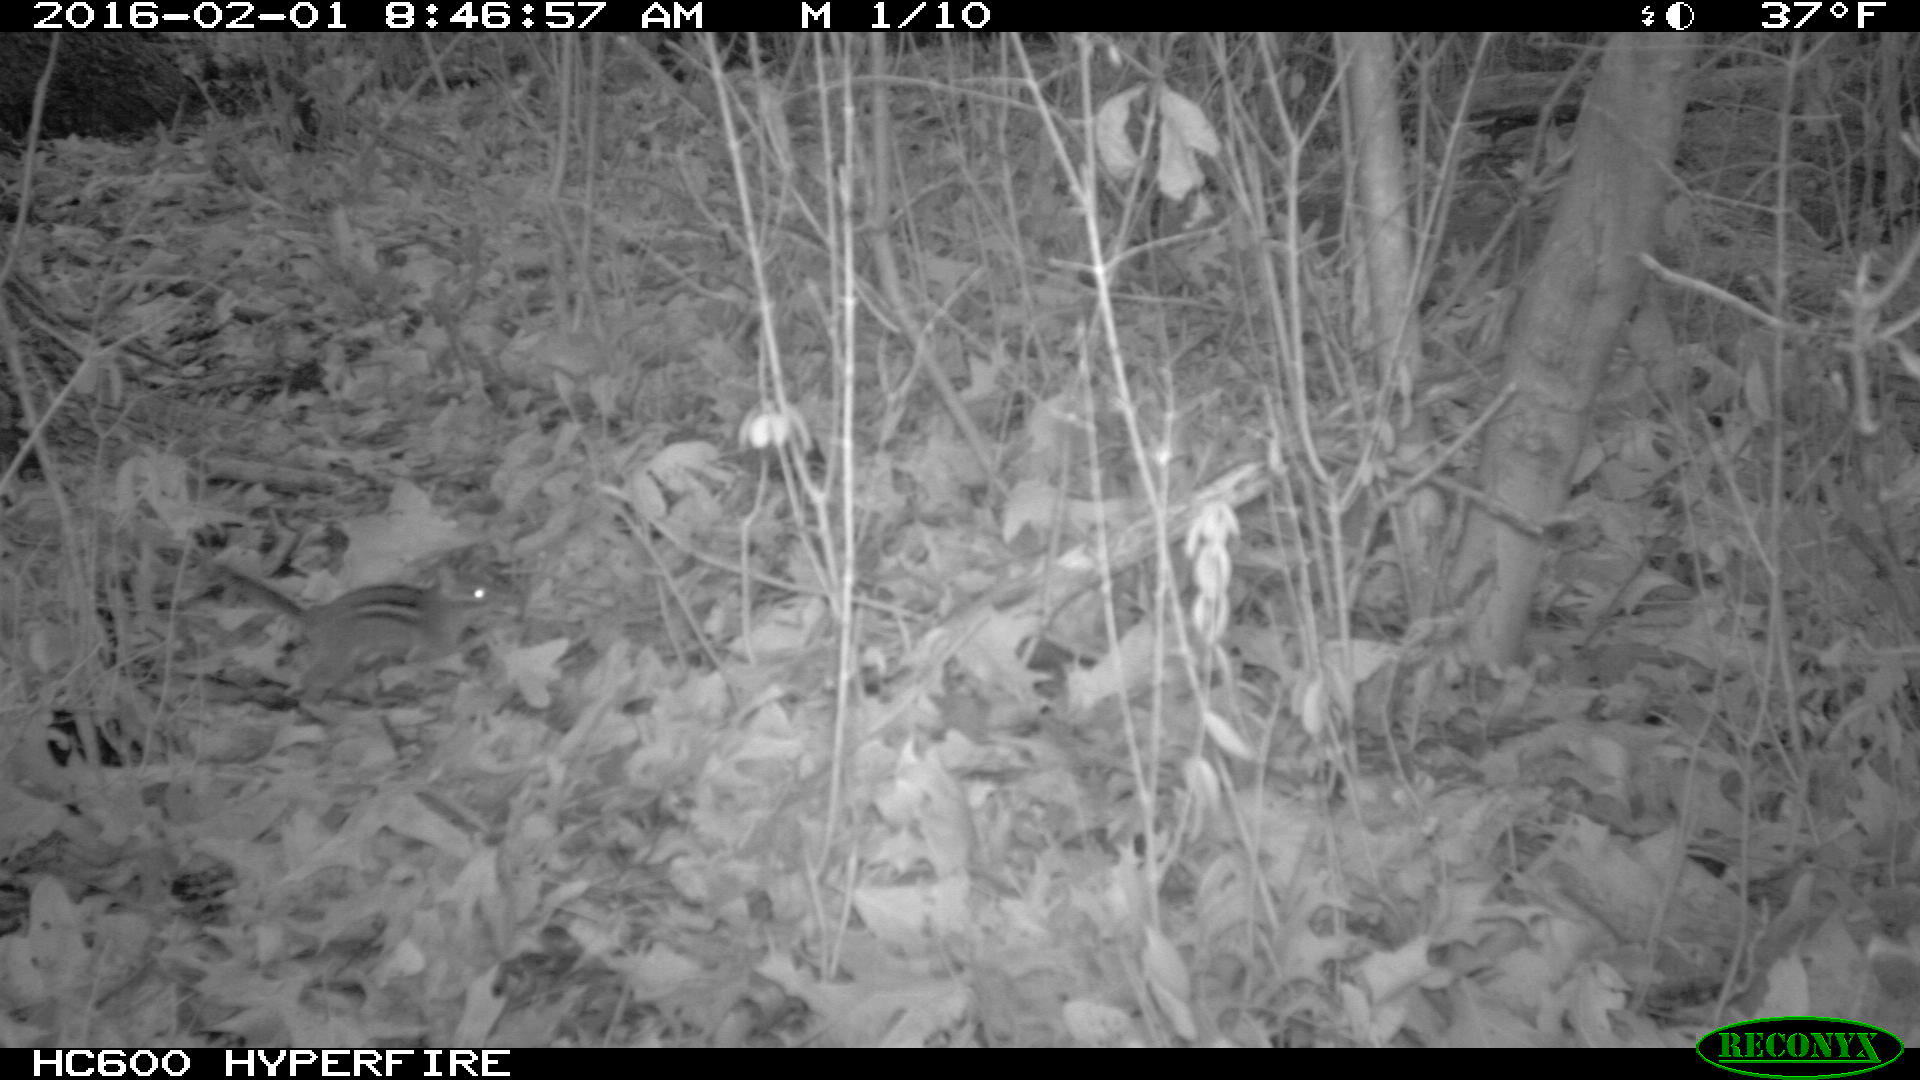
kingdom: Animalia
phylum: Chordata
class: Mammalia
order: Rodentia
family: Sciuridae
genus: Tamias
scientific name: Tamias striatus
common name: Eastern chipmunk
